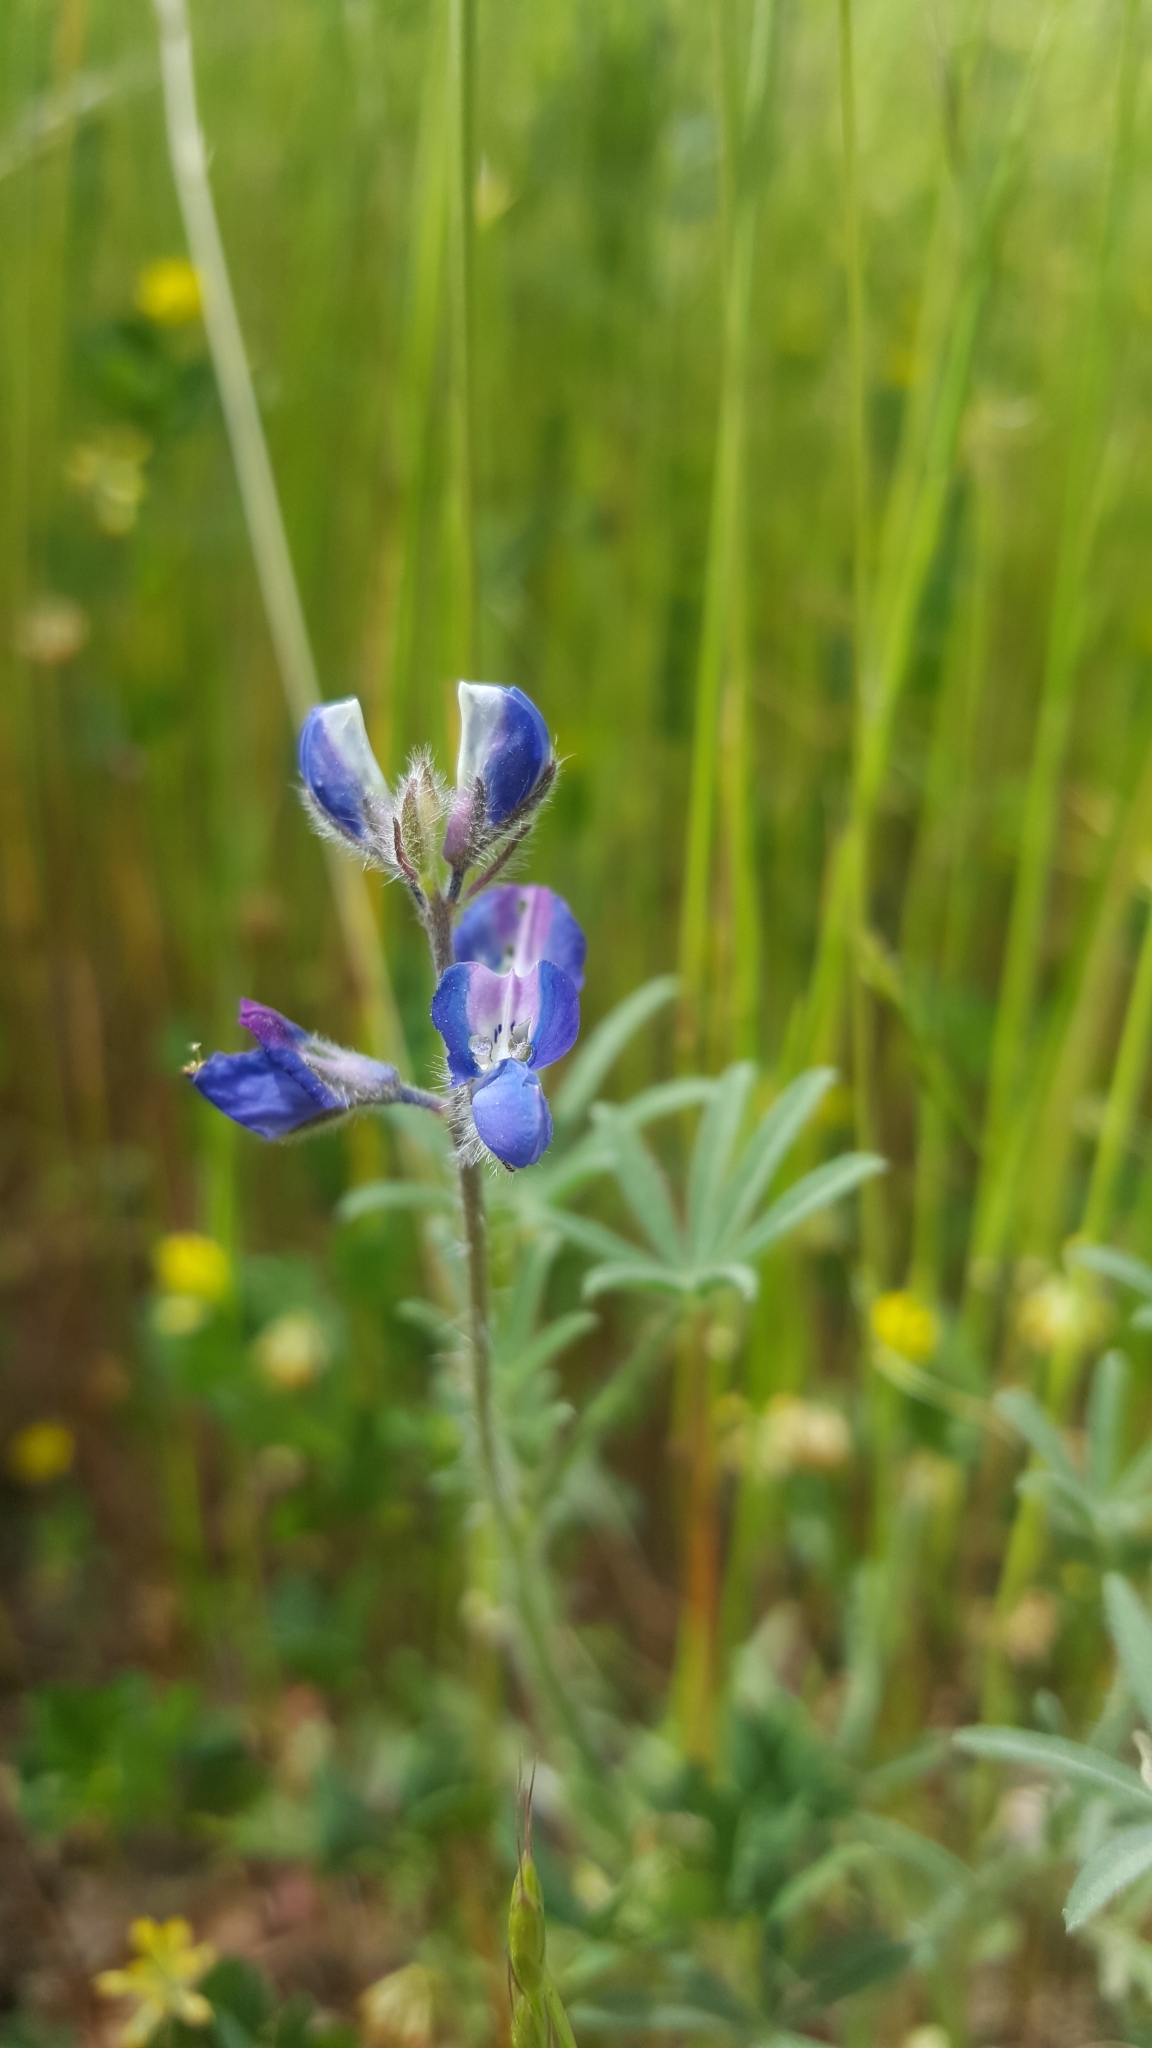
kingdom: Plantae
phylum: Tracheophyta
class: Magnoliopsida
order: Fabales
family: Fabaceae
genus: Lupinus
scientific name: Lupinus bicolor
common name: Miniature lupine
